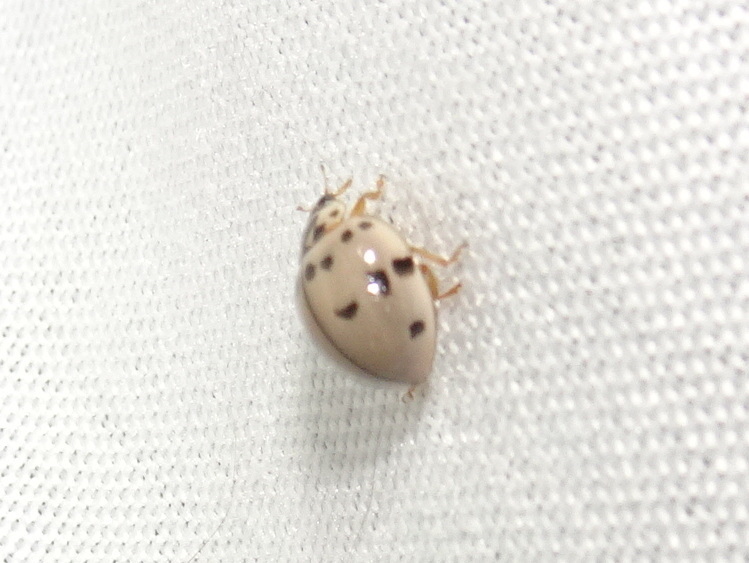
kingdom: Animalia
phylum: Arthropoda
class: Insecta
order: Coleoptera
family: Coccinellidae
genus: Olla
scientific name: Olla v-nigrum
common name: Ashy gray lady beetle
